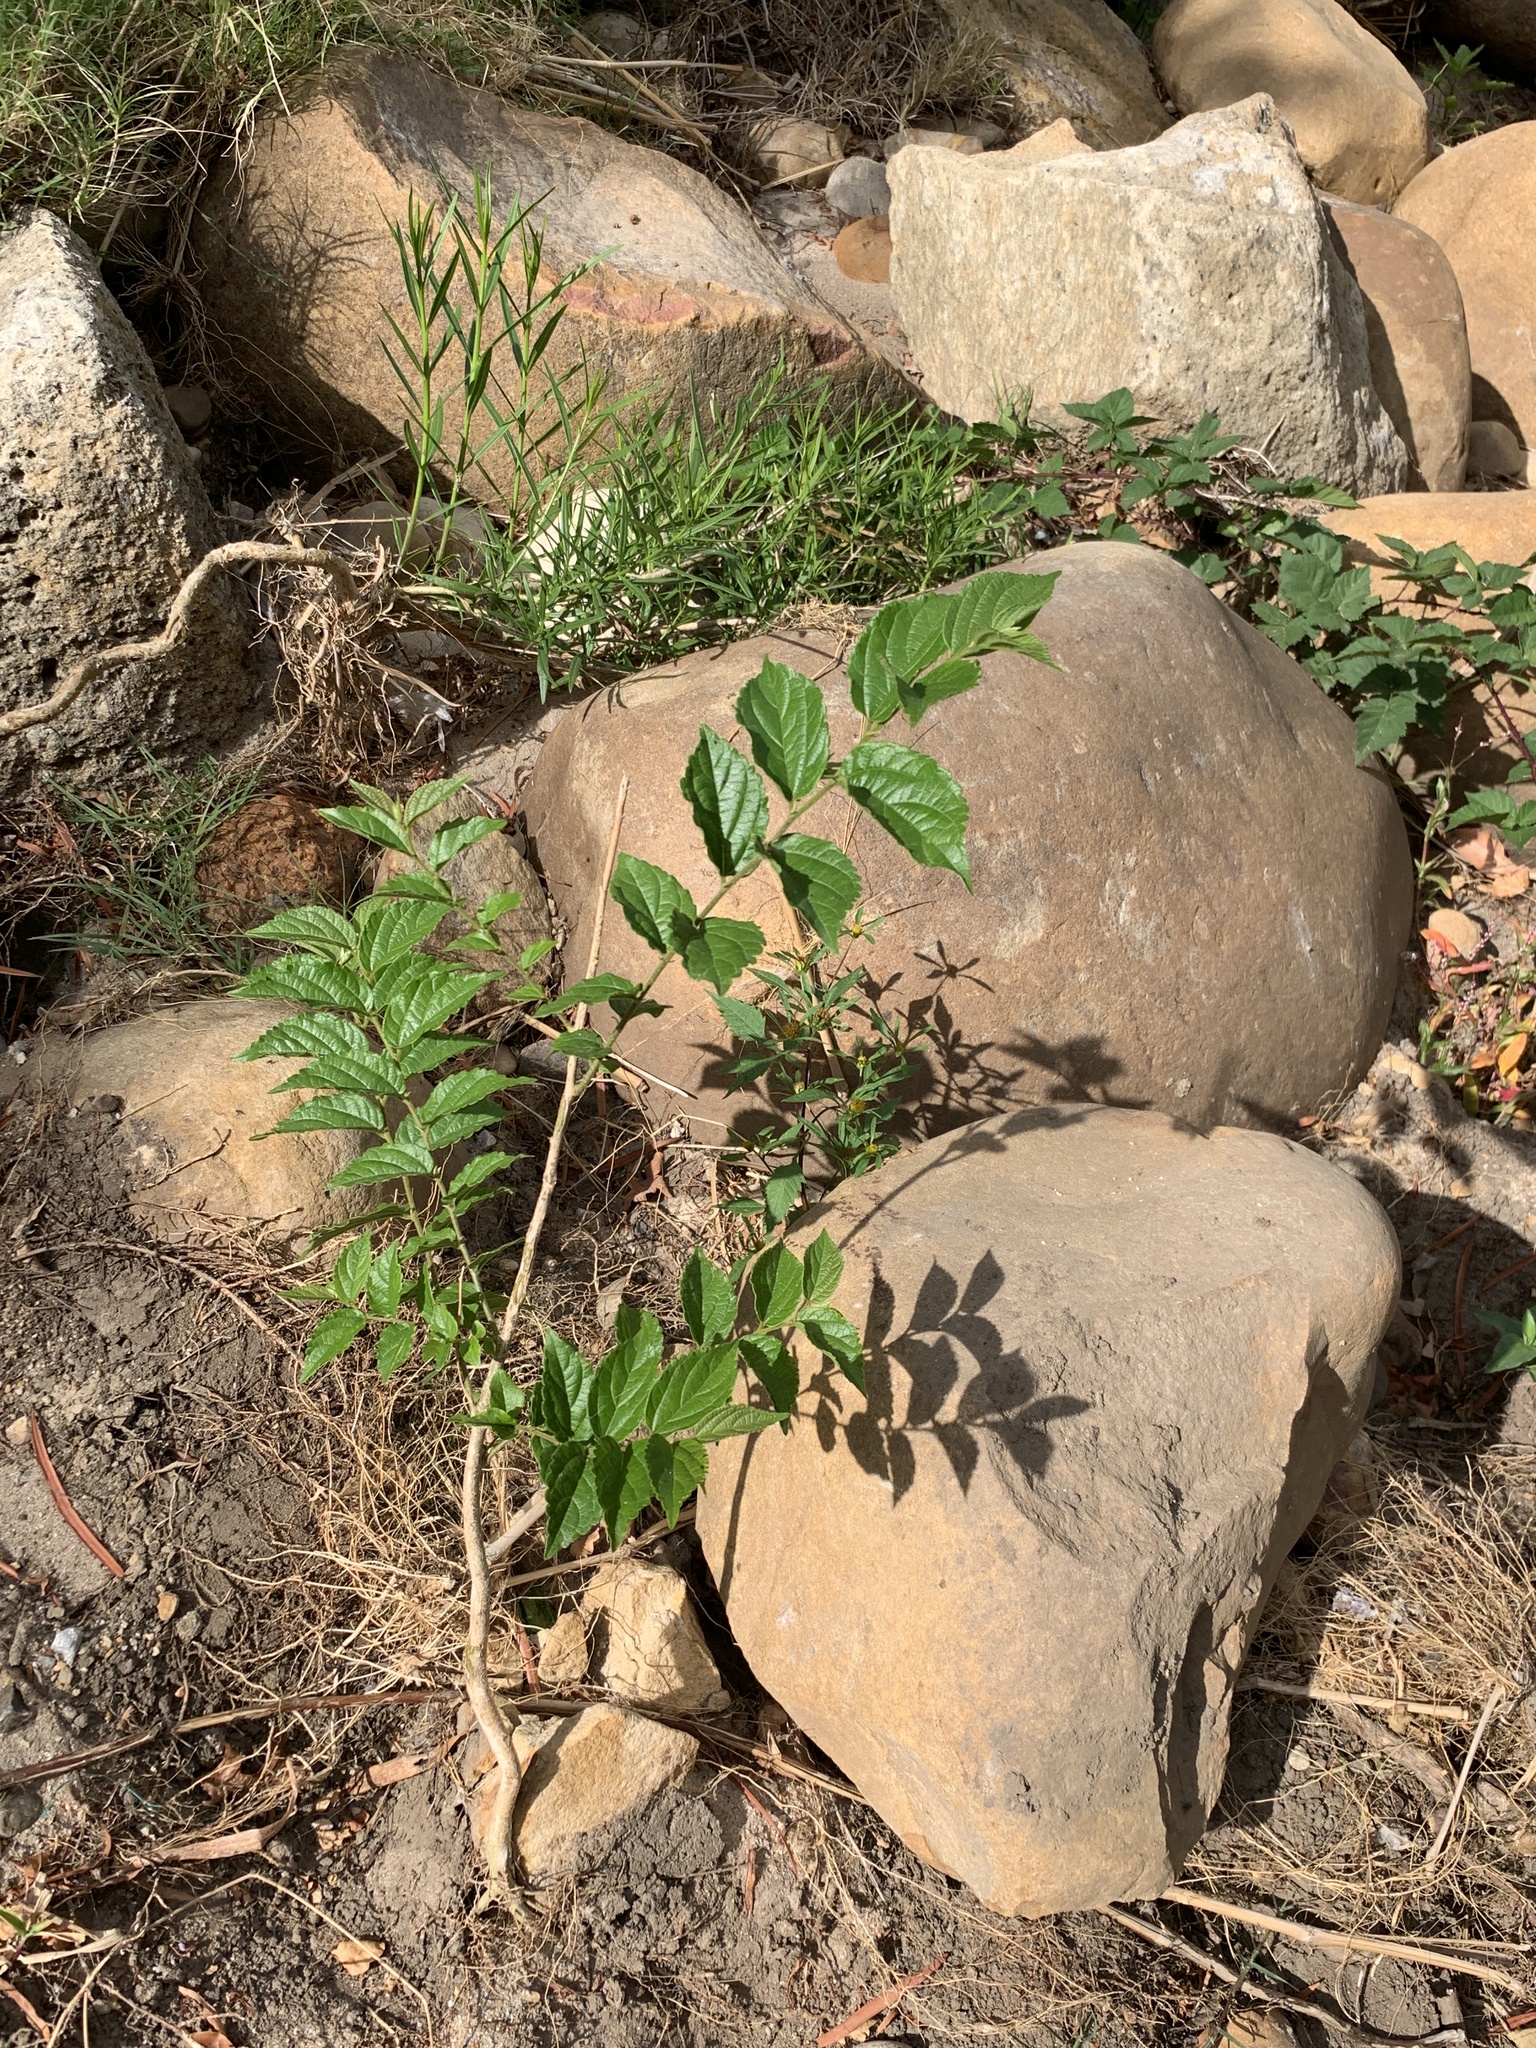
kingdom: Plantae
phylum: Tracheophyta
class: Magnoliopsida
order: Rosales
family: Cannabaceae
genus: Celtis
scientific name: Celtis sinensis
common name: Chinese hackberry
